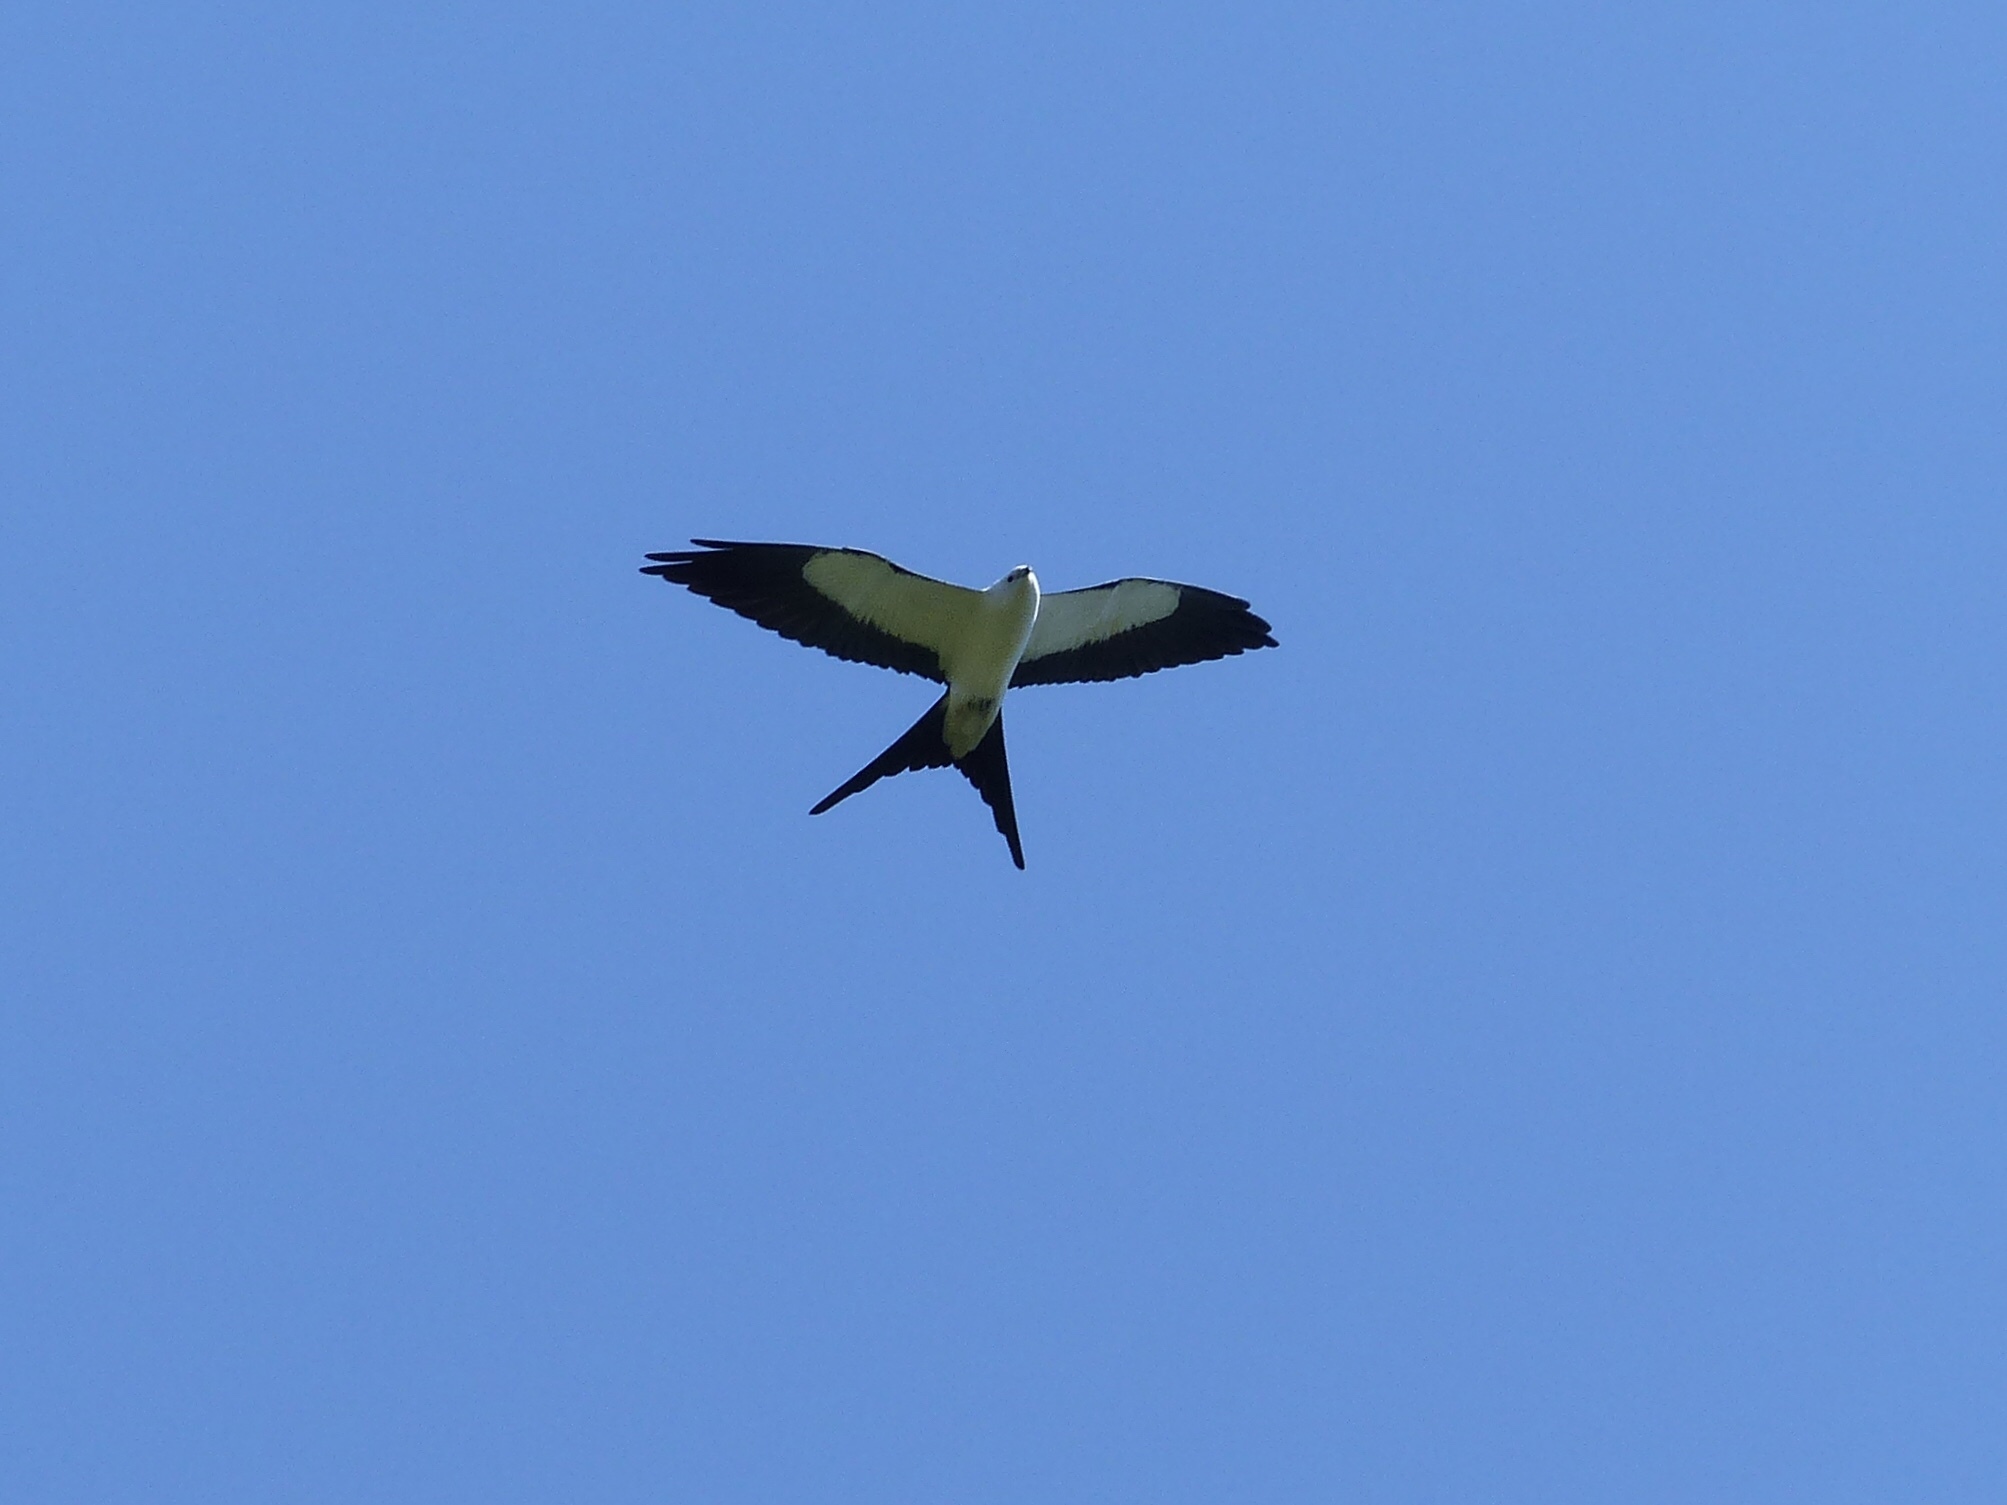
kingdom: Animalia
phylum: Chordata
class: Aves
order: Accipitriformes
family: Accipitridae
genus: Elanoides
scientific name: Elanoides forficatus
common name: Swallow-tailed kite
